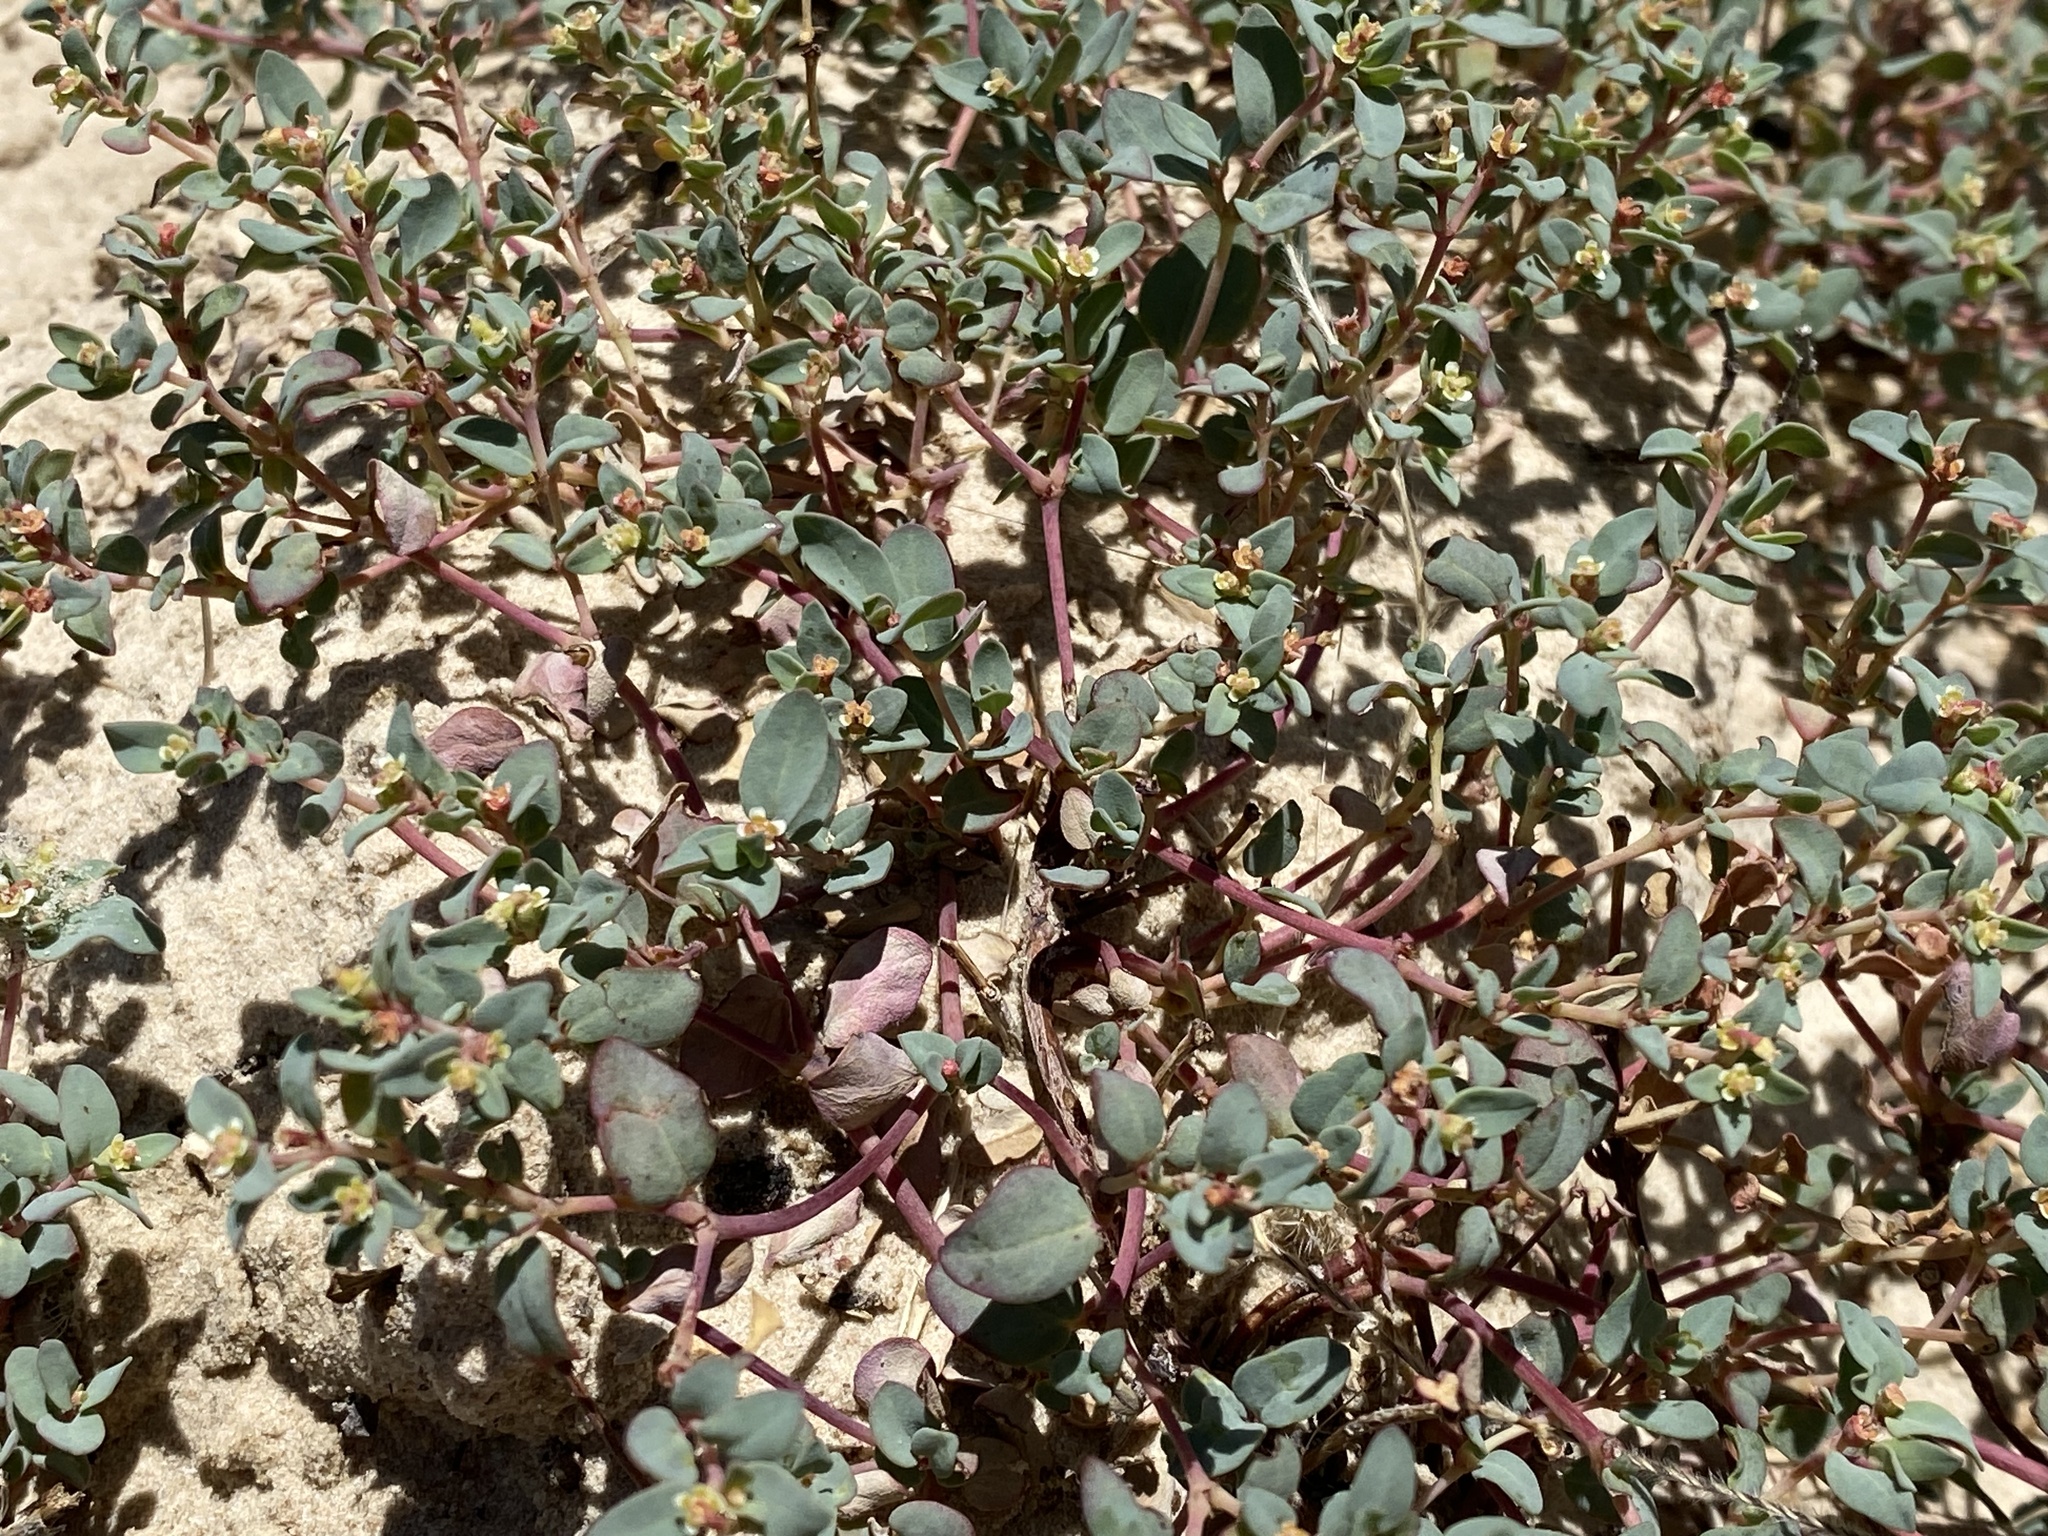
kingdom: Plantae
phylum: Tracheophyta
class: Magnoliopsida
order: Malpighiales
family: Euphorbiaceae
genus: Euphorbia
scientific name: Euphorbia fendleri
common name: Fendler's euphorbia
